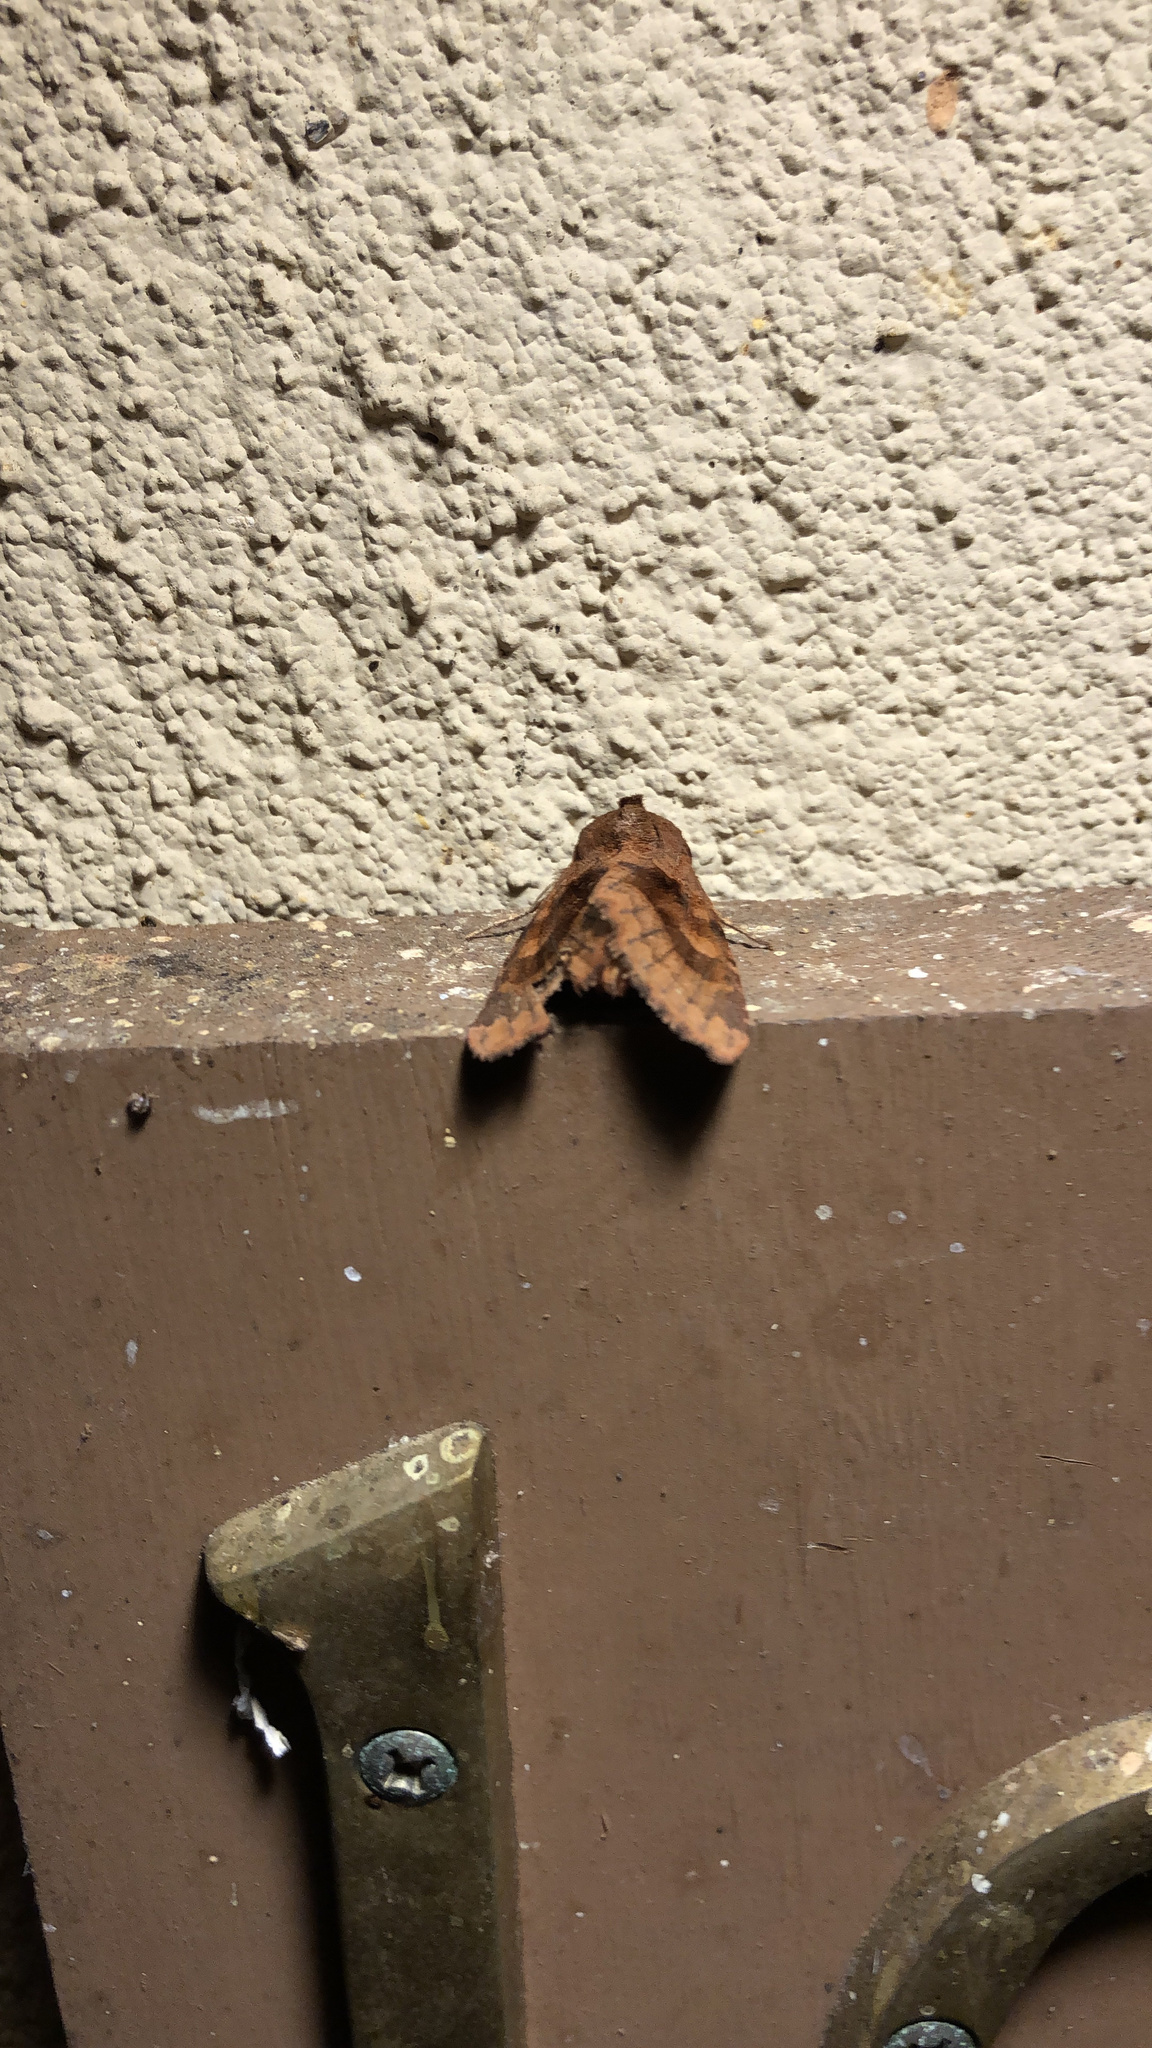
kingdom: Animalia
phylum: Arthropoda
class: Insecta
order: Lepidoptera
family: Noctuidae
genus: Nephelodes
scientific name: Nephelodes minians
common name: Bronzed cutworm
